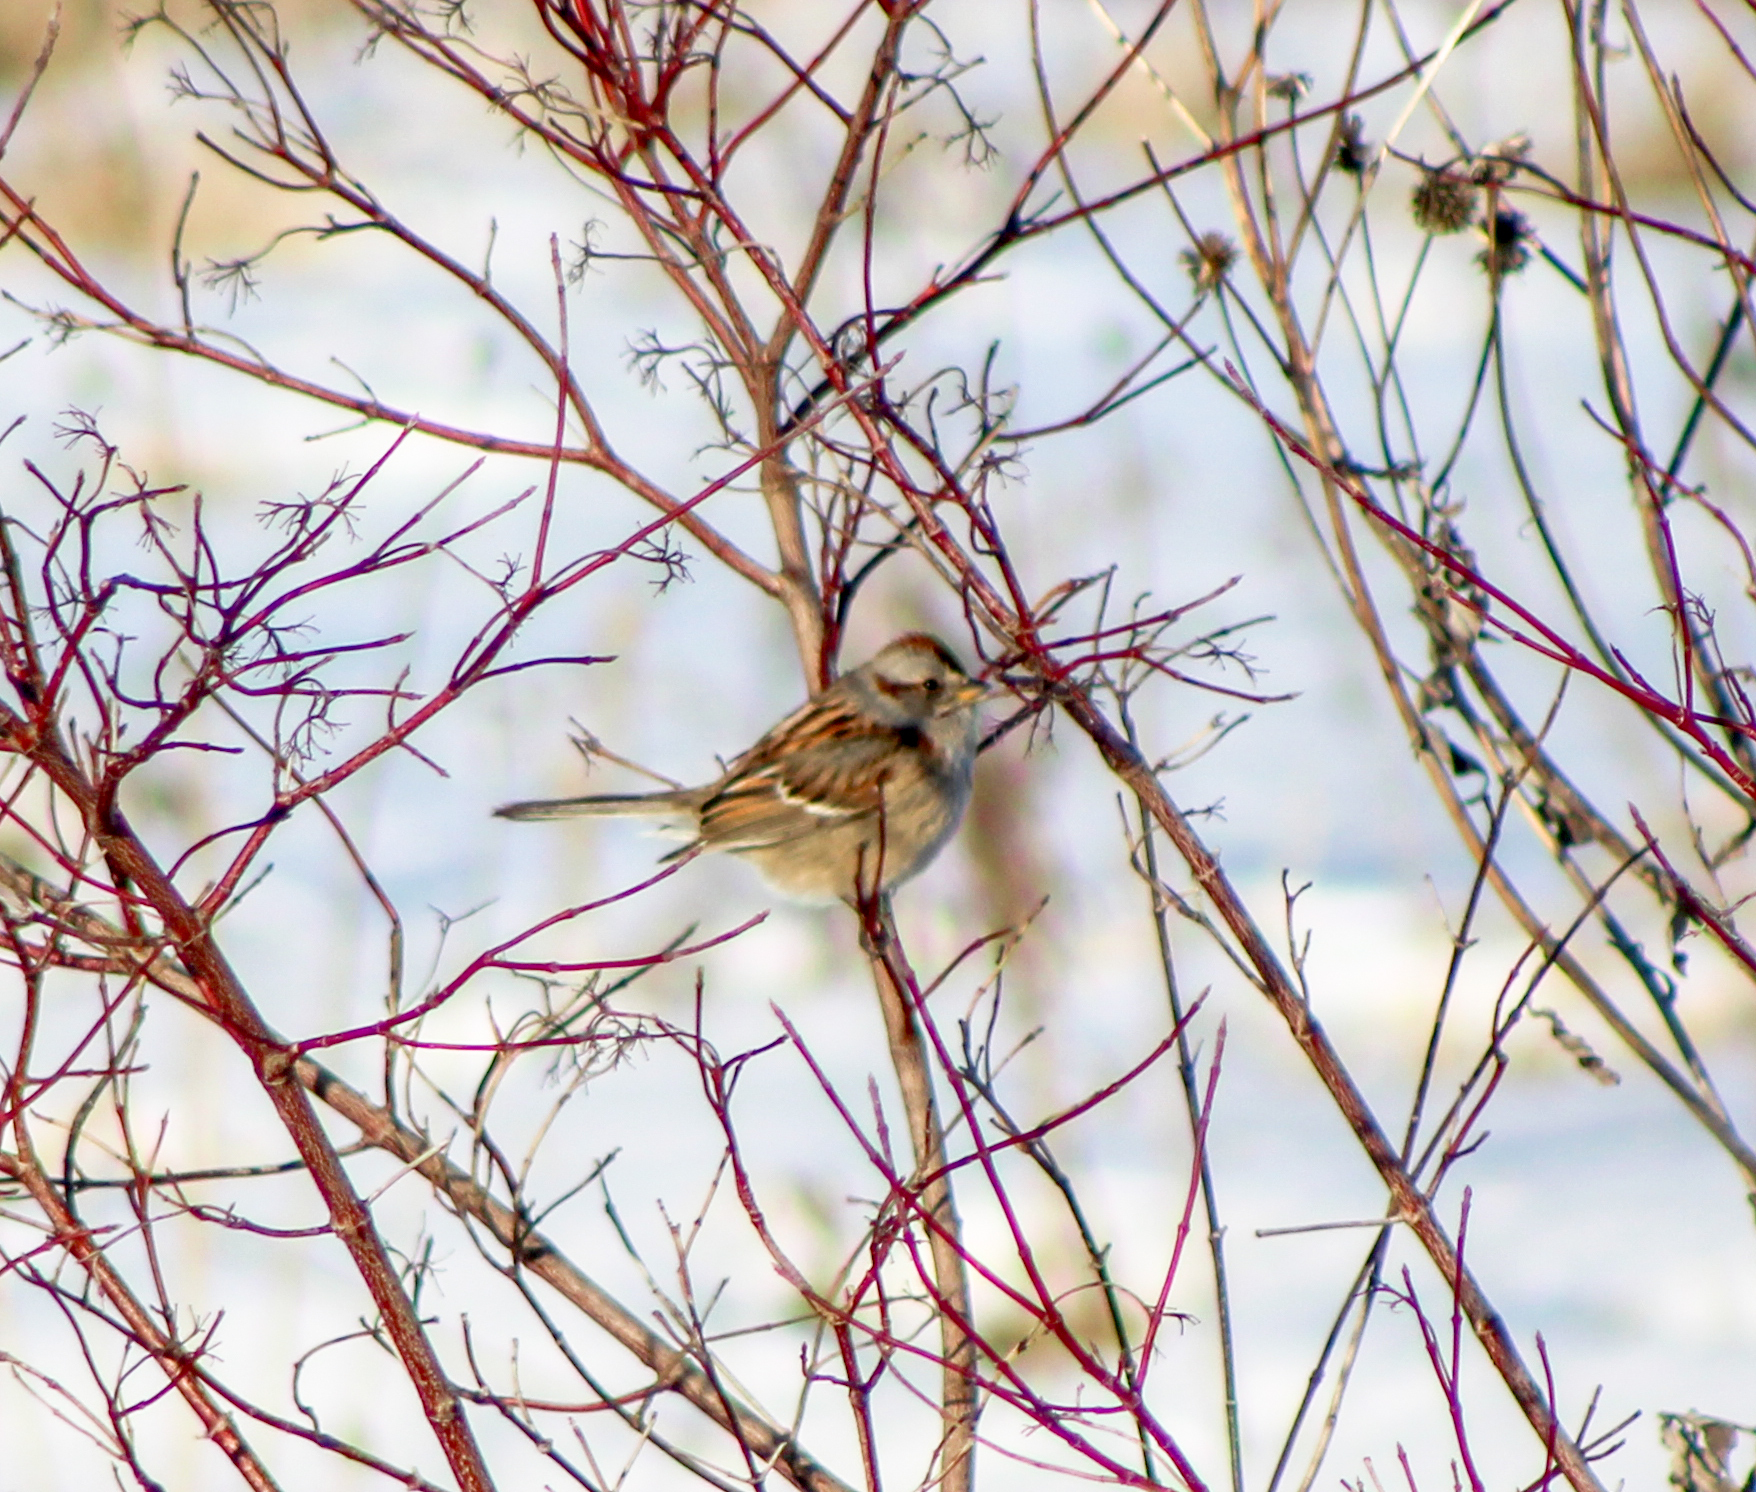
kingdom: Animalia
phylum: Chordata
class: Aves
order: Passeriformes
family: Passerellidae
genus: Spizelloides
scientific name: Spizelloides arborea
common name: American tree sparrow
